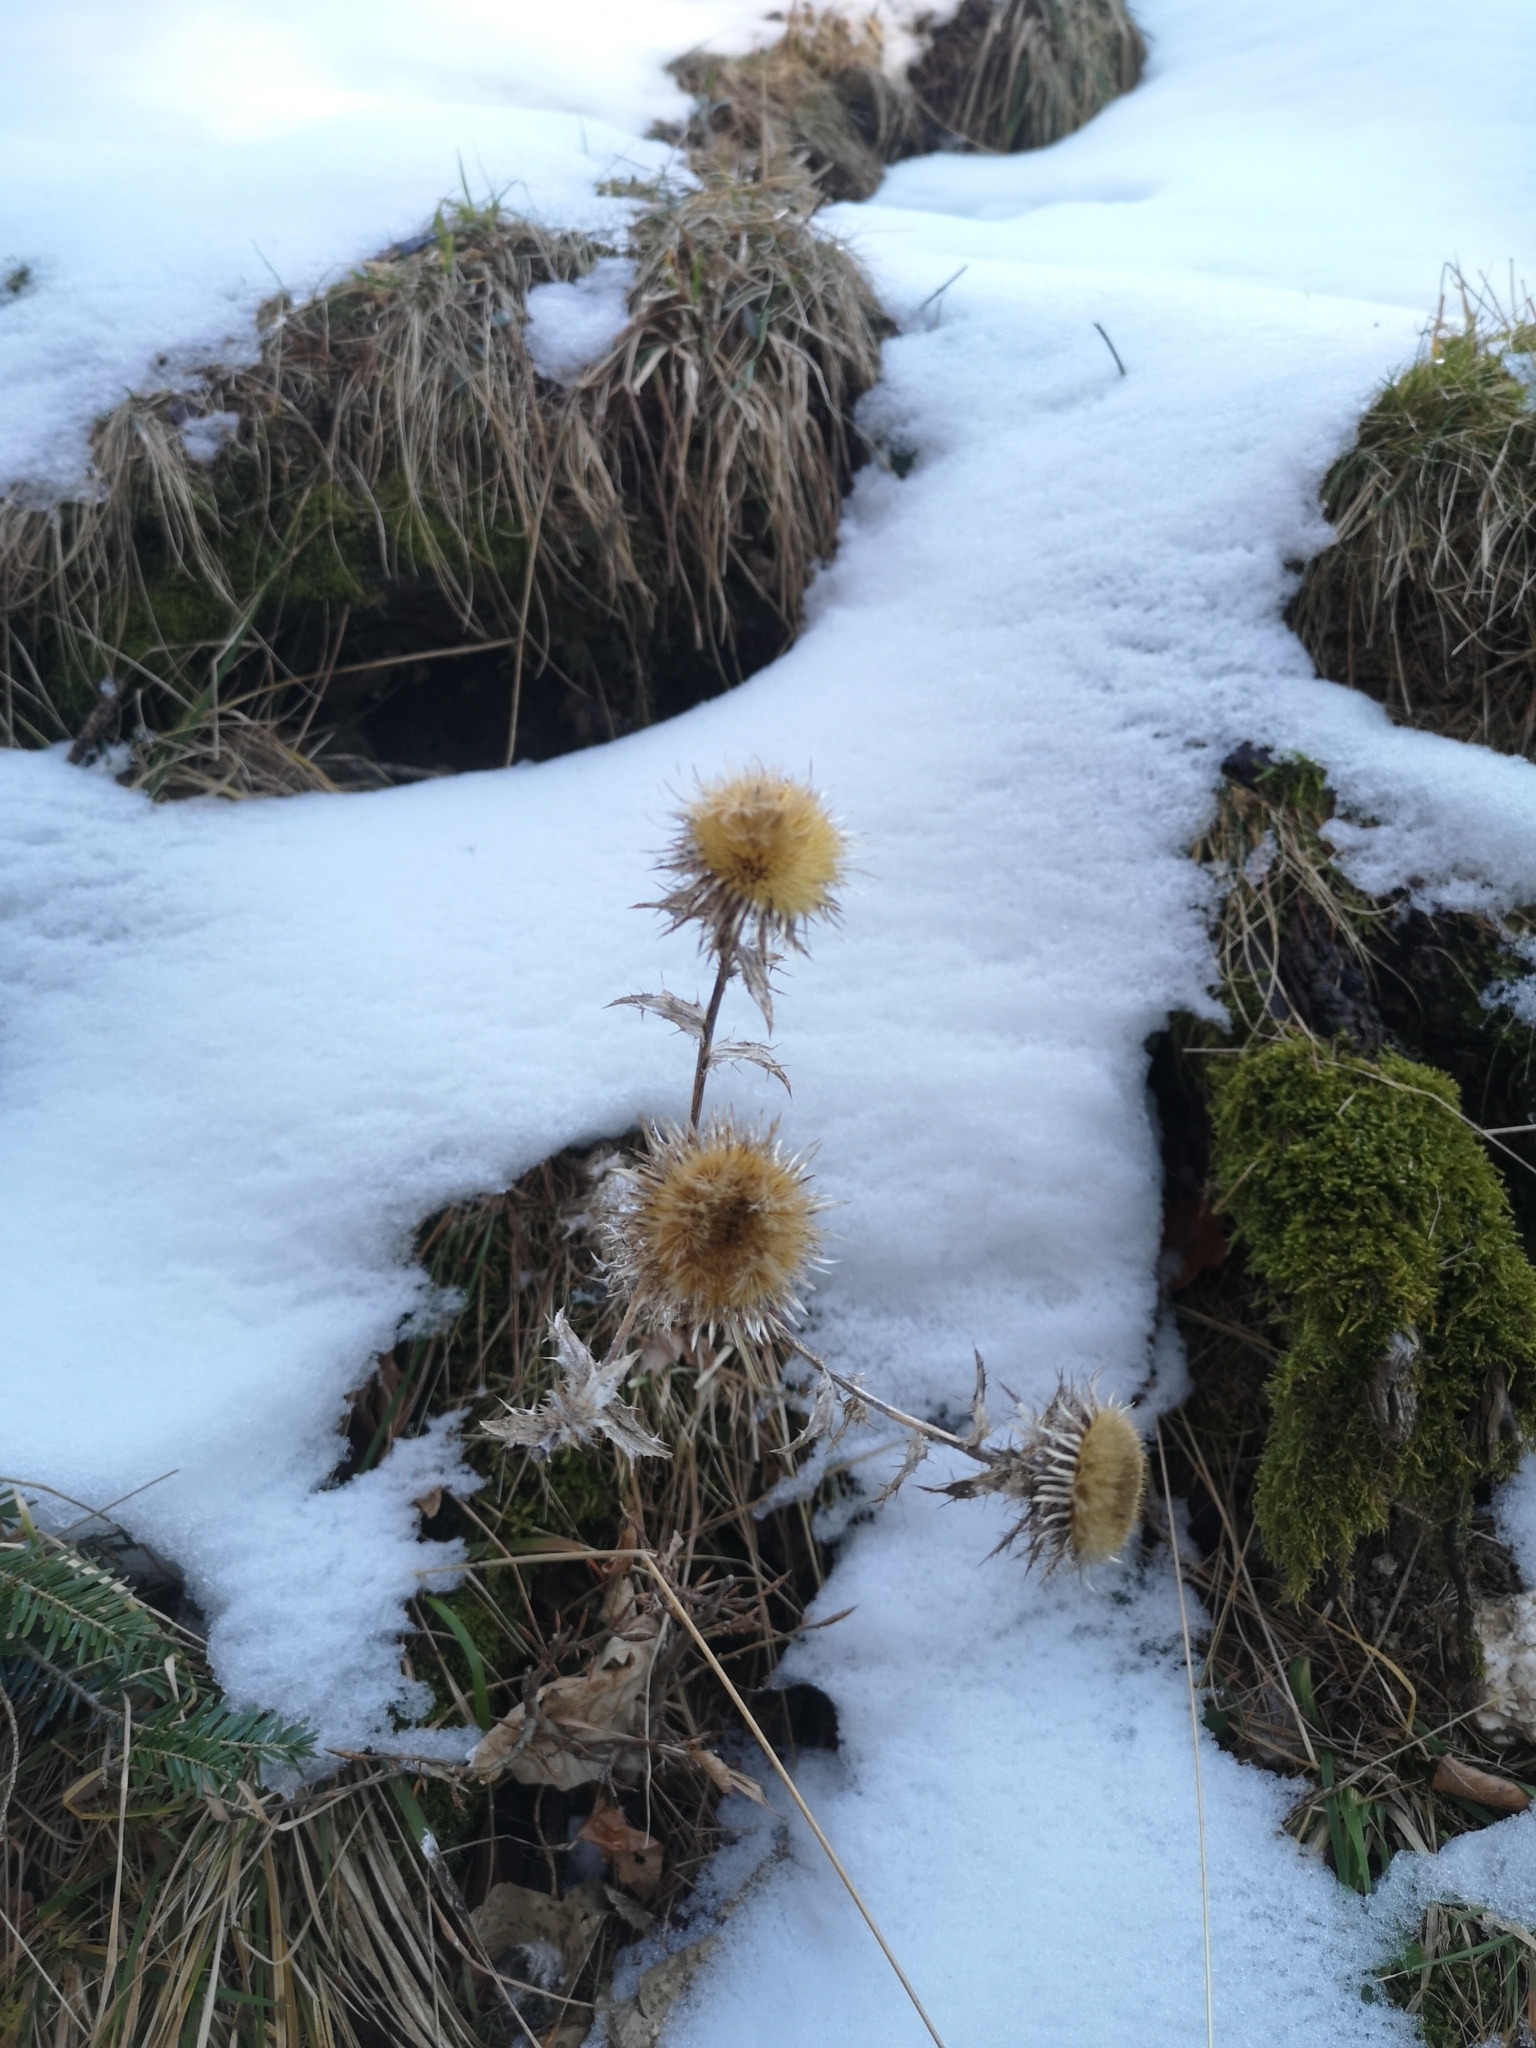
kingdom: Plantae
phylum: Tracheophyta
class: Magnoliopsida
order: Asterales
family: Asteraceae
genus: Carlina
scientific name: Carlina vulgaris
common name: Carline thistle
